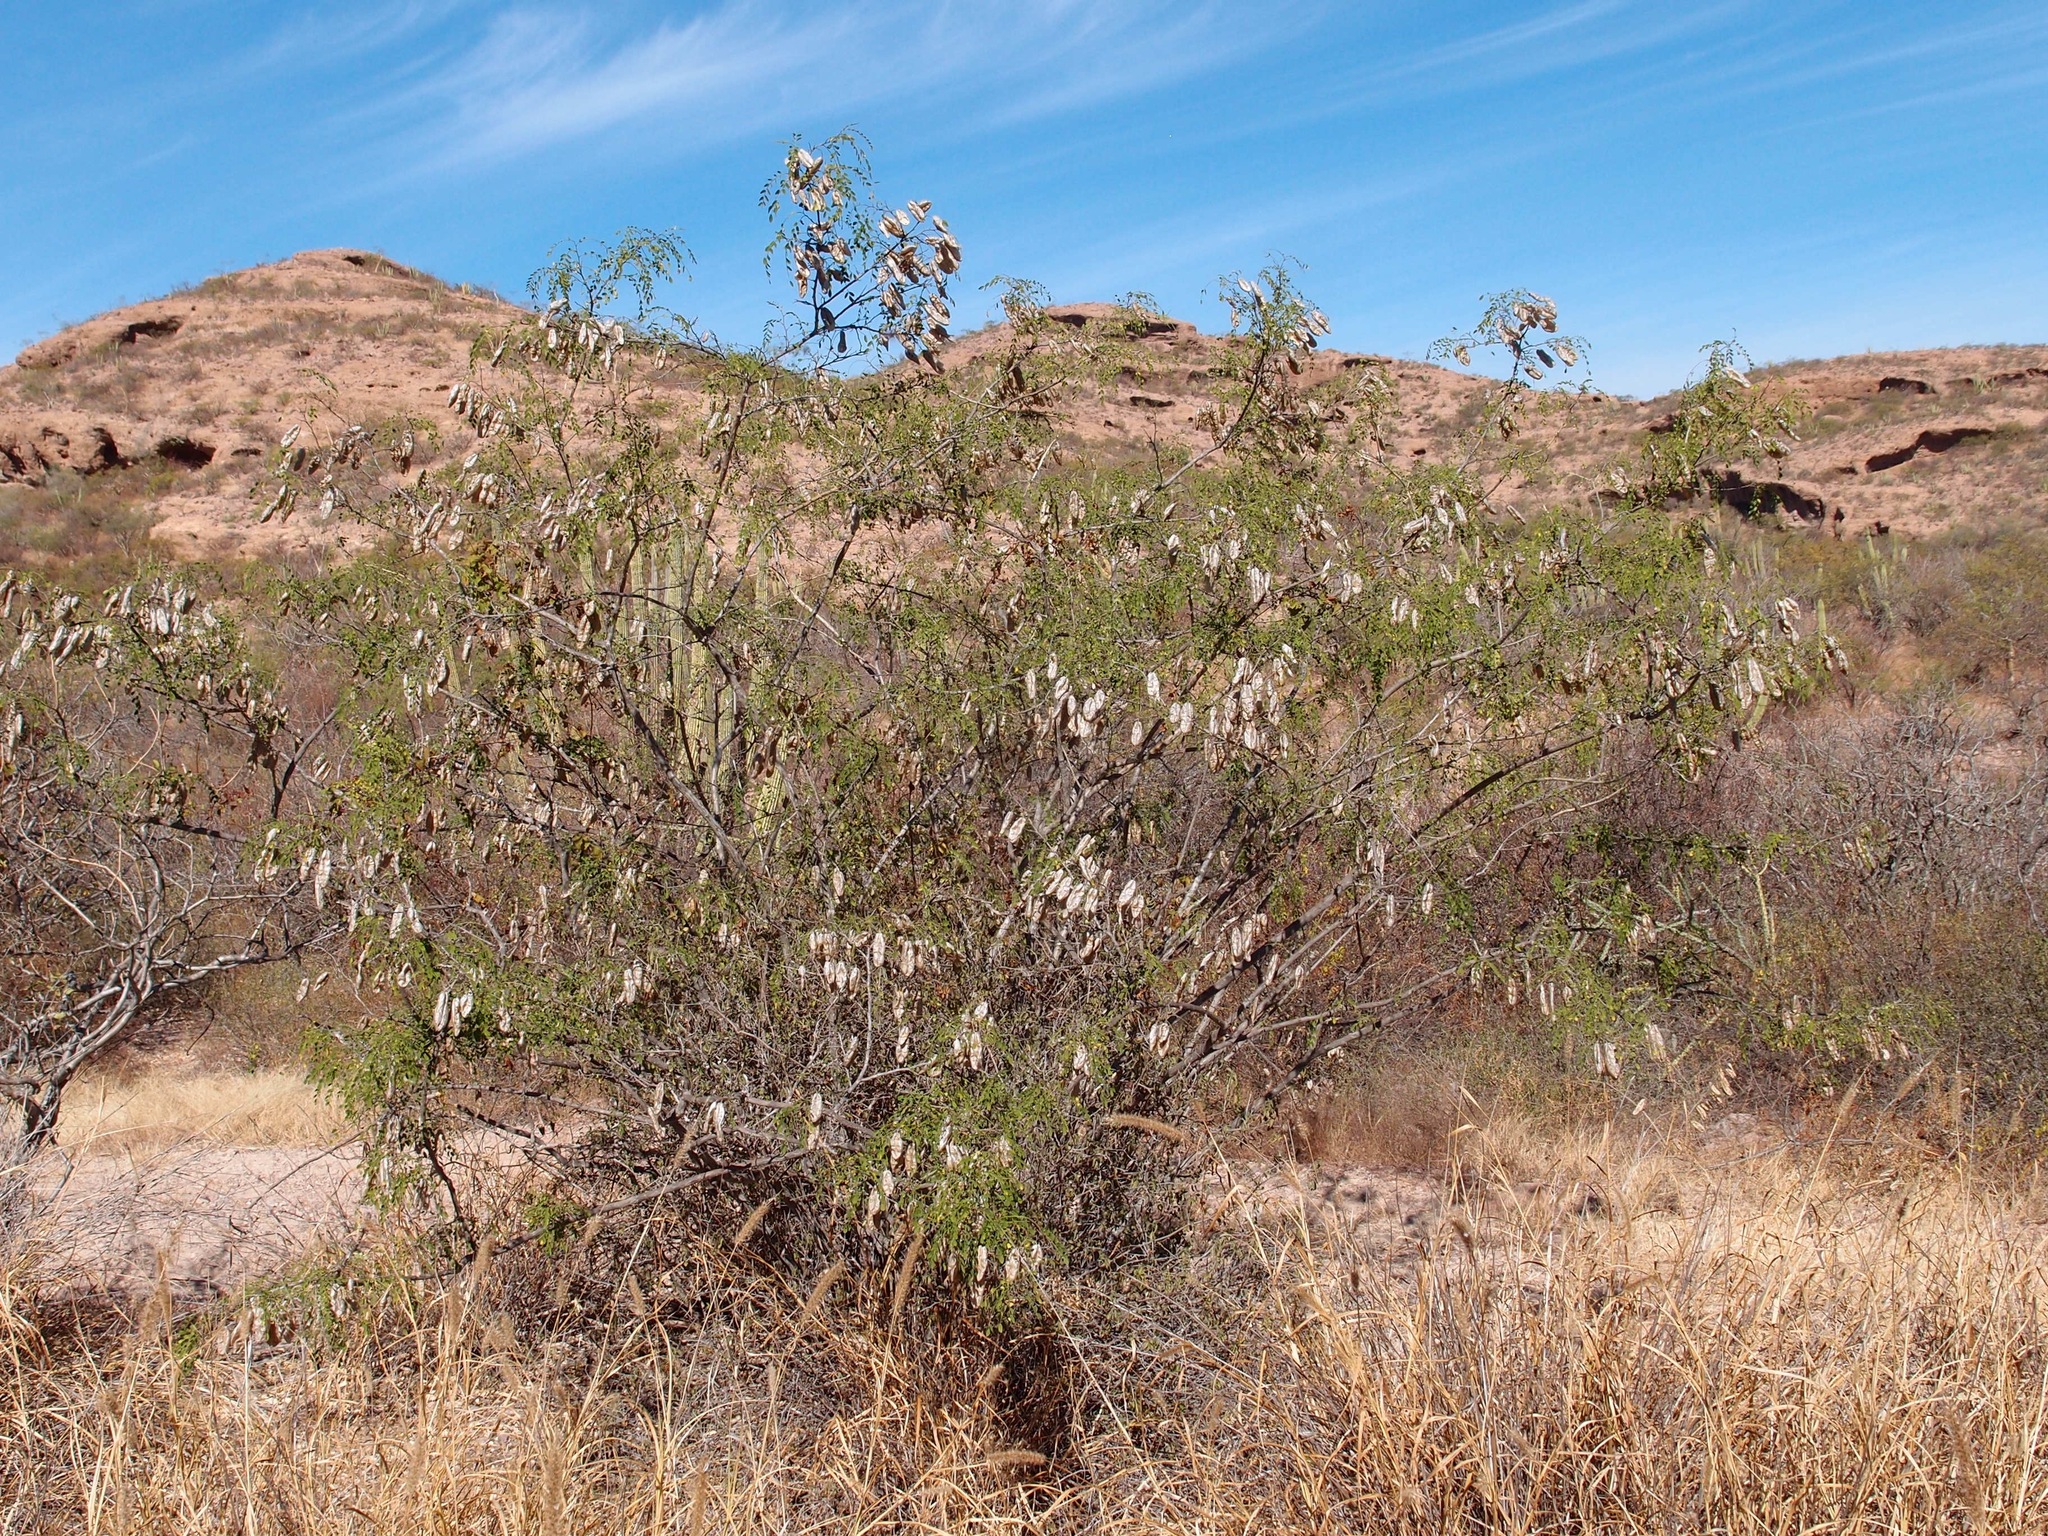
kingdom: Plantae
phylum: Tracheophyta
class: Magnoliopsida
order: Fabales
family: Fabaceae
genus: Diphysa
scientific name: Diphysa occidentalis
